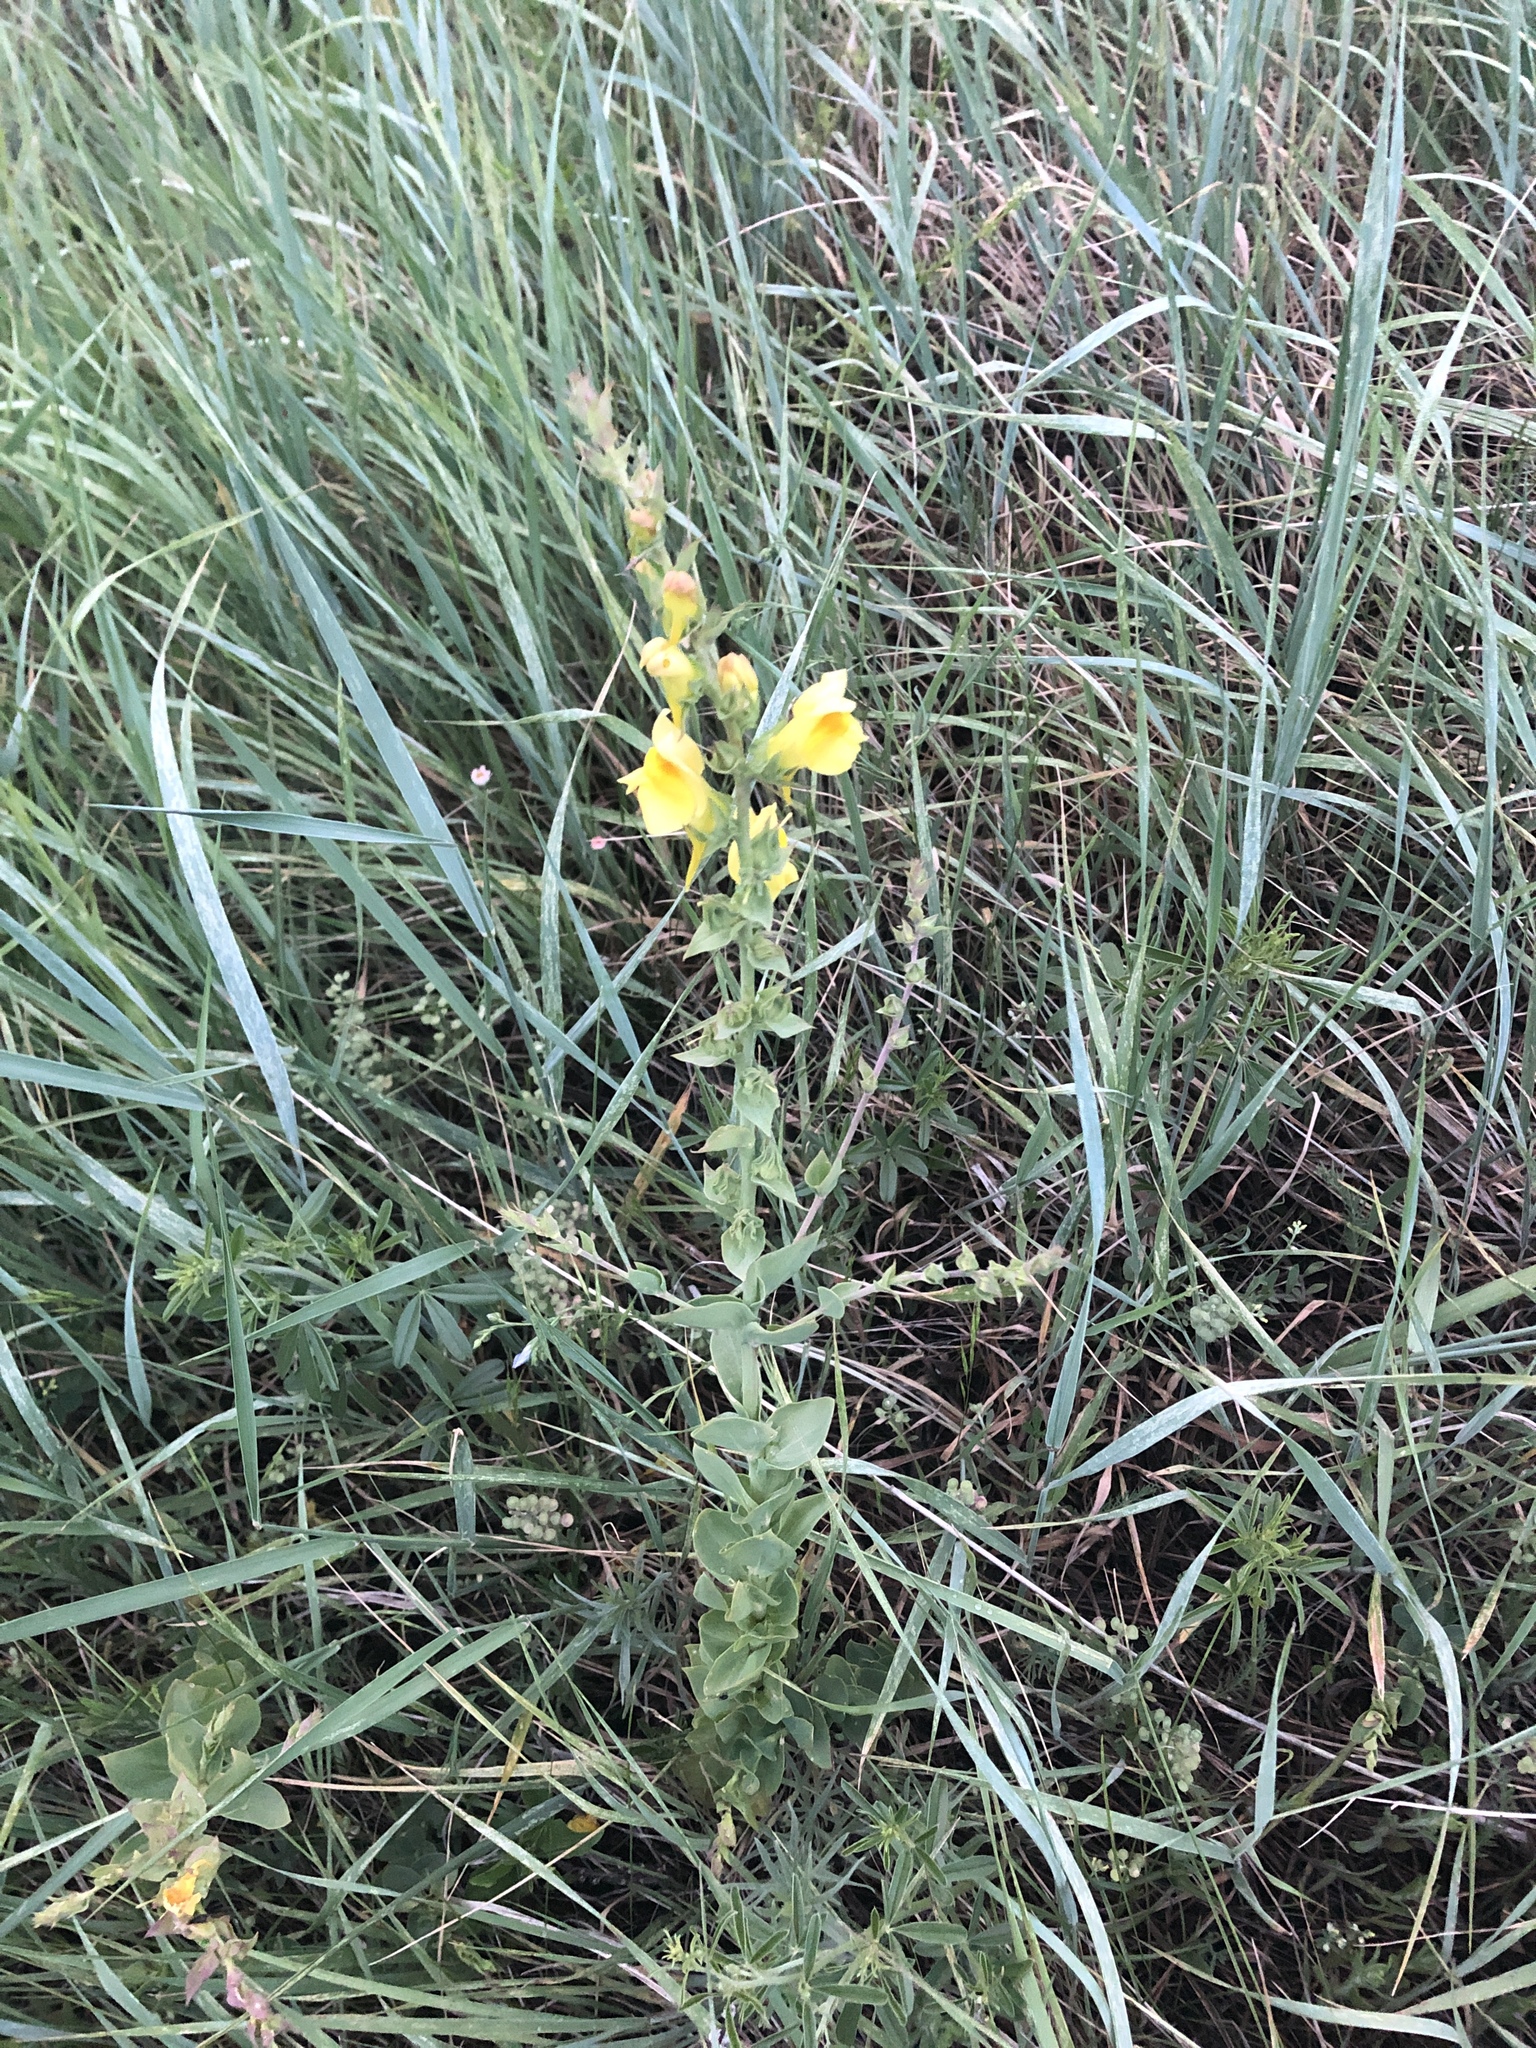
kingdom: Plantae
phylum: Tracheophyta
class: Magnoliopsida
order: Lamiales
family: Plantaginaceae
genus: Linaria
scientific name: Linaria dalmatica
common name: Dalmatian toadflax
